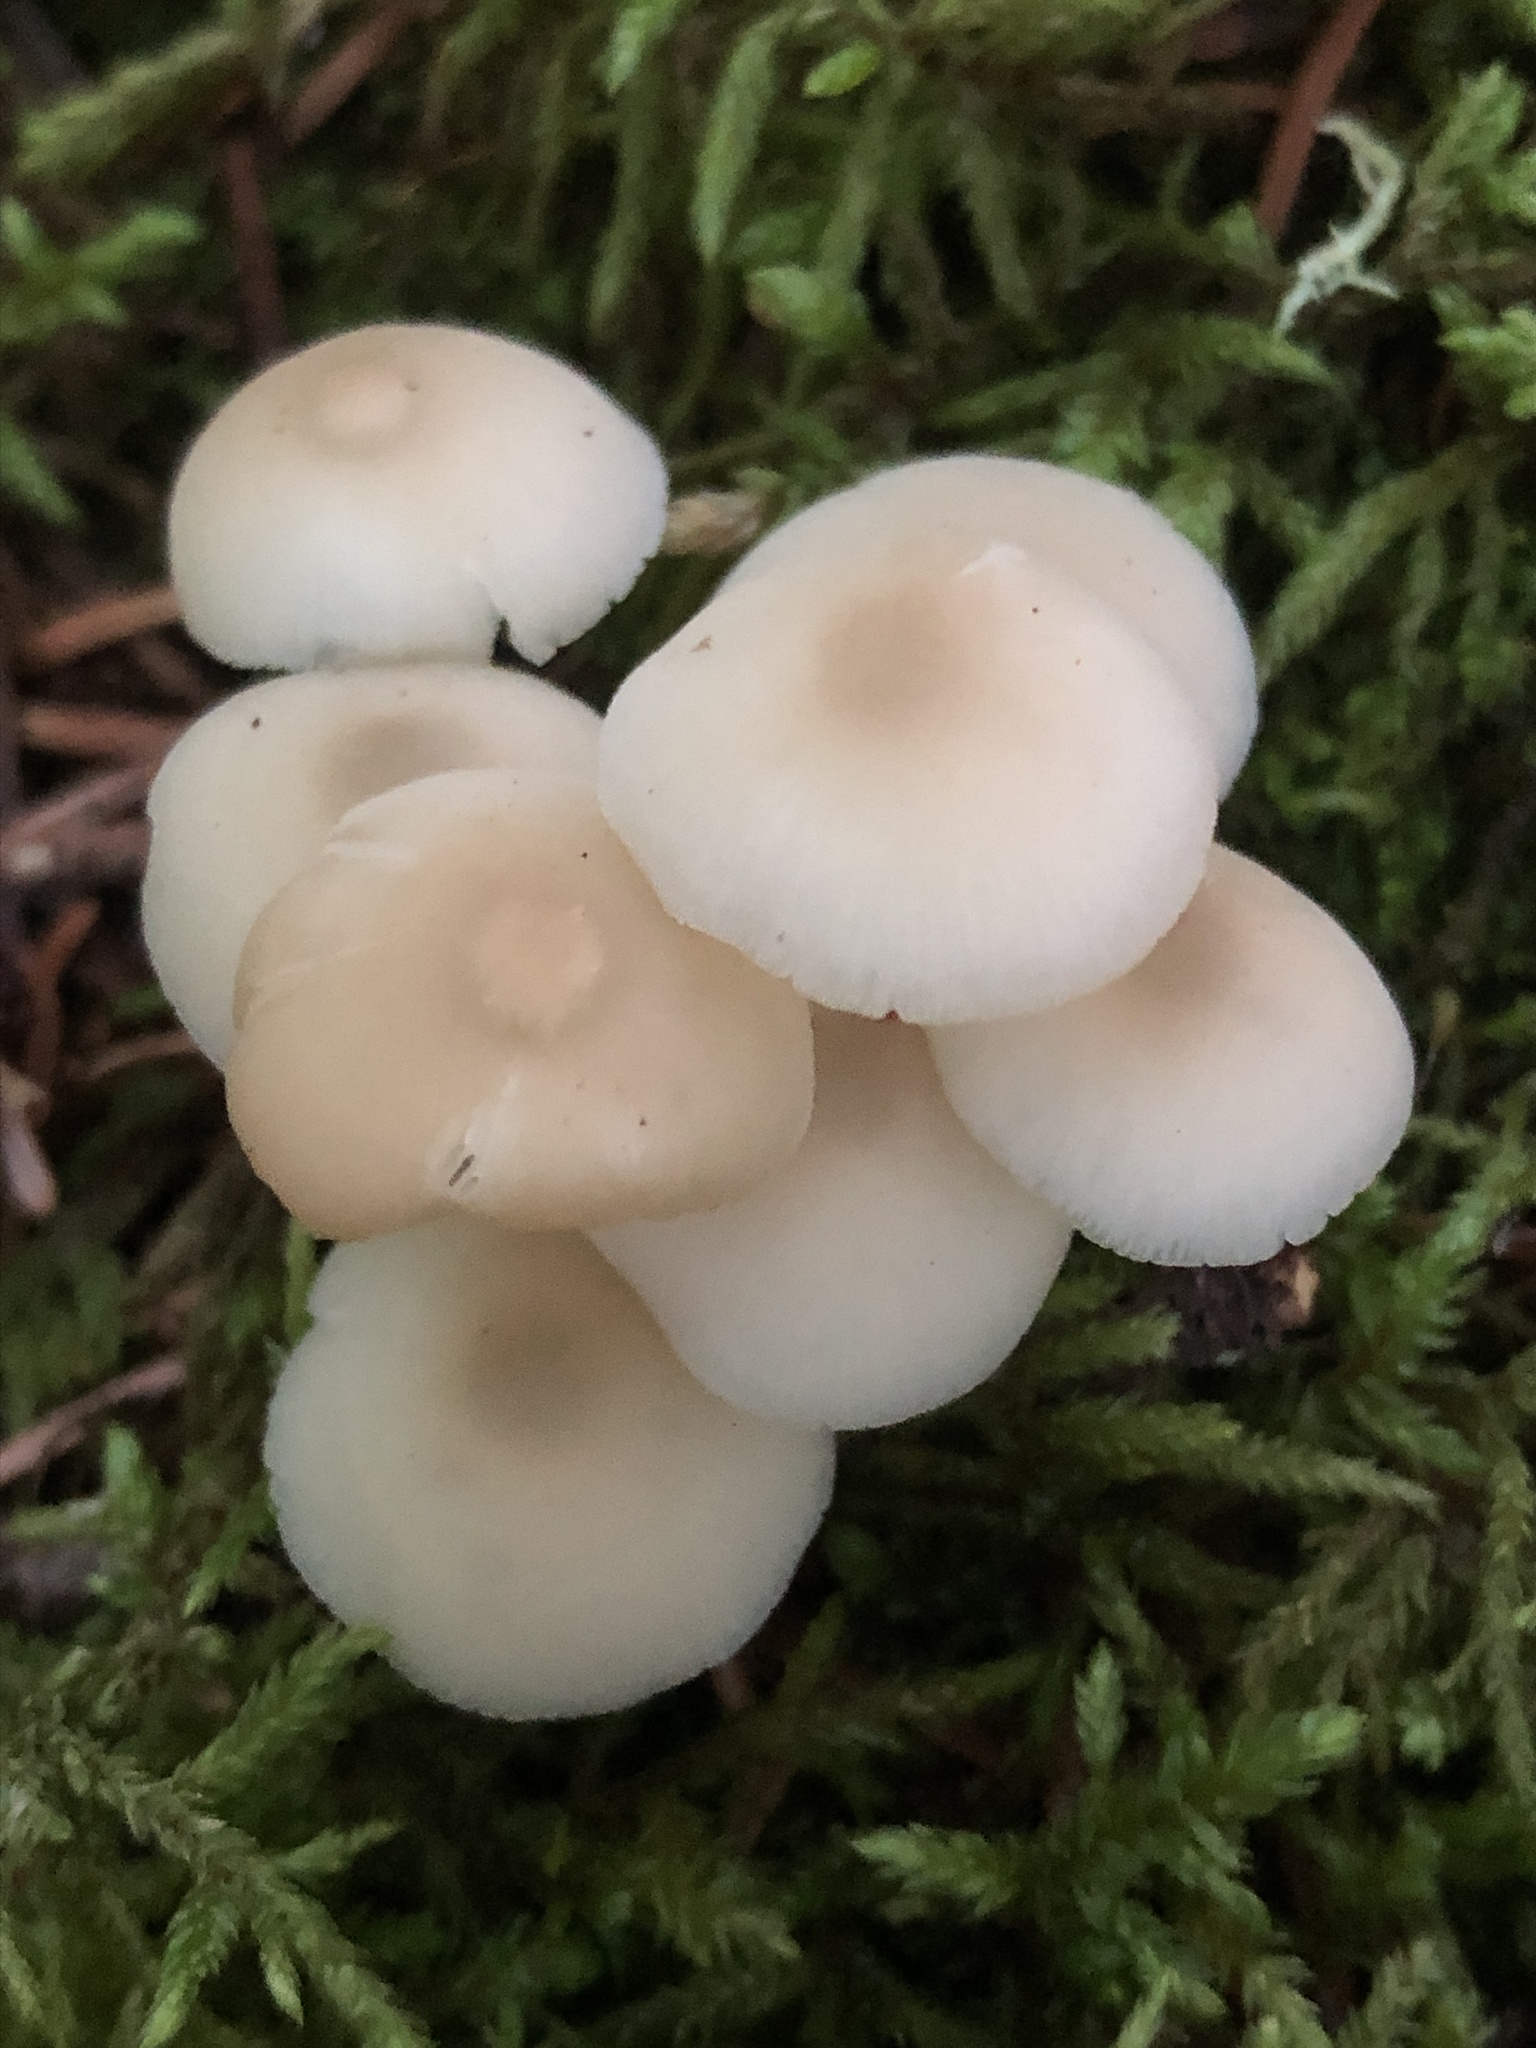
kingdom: Fungi
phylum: Basidiomycota
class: Agaricomycetes
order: Agaricales
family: Marasmiaceae
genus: Clitocybula
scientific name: Clitocybula oculus
